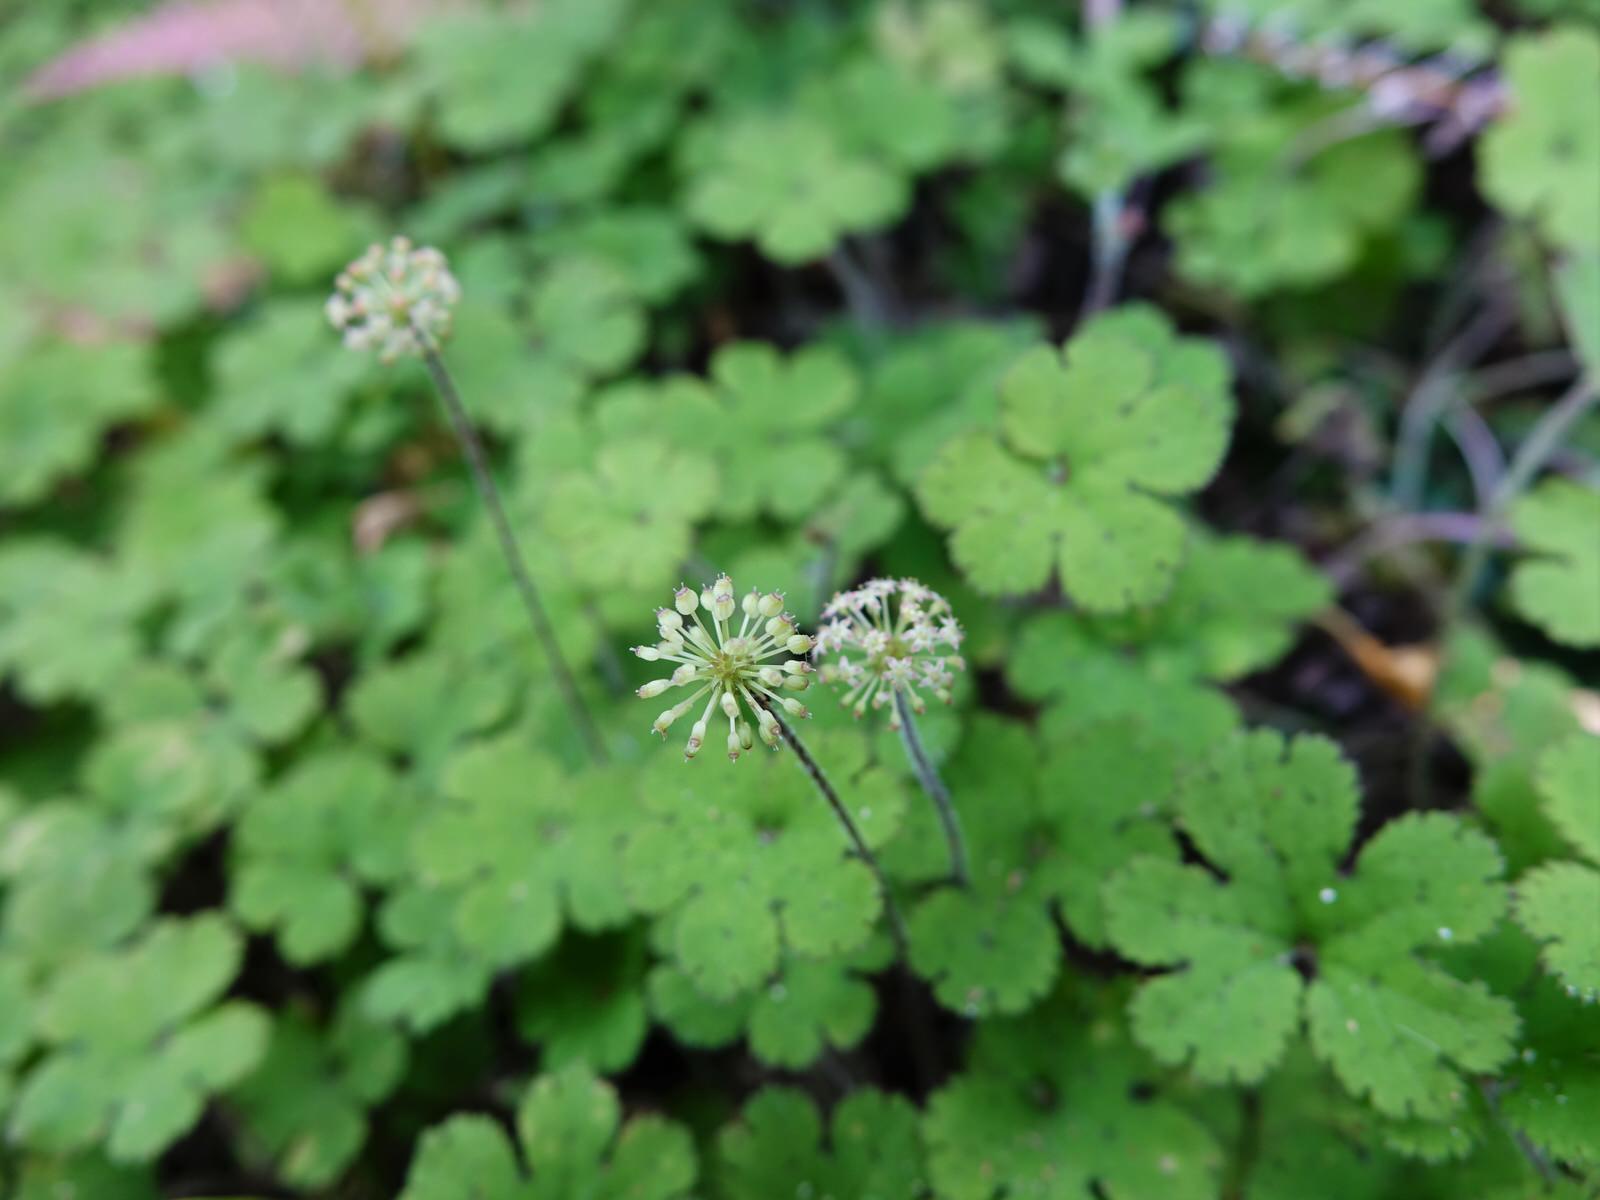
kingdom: Plantae
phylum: Tracheophyta
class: Magnoliopsida
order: Apiales
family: Araliaceae
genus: Hydrocotyle
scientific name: Hydrocotyle elongata
